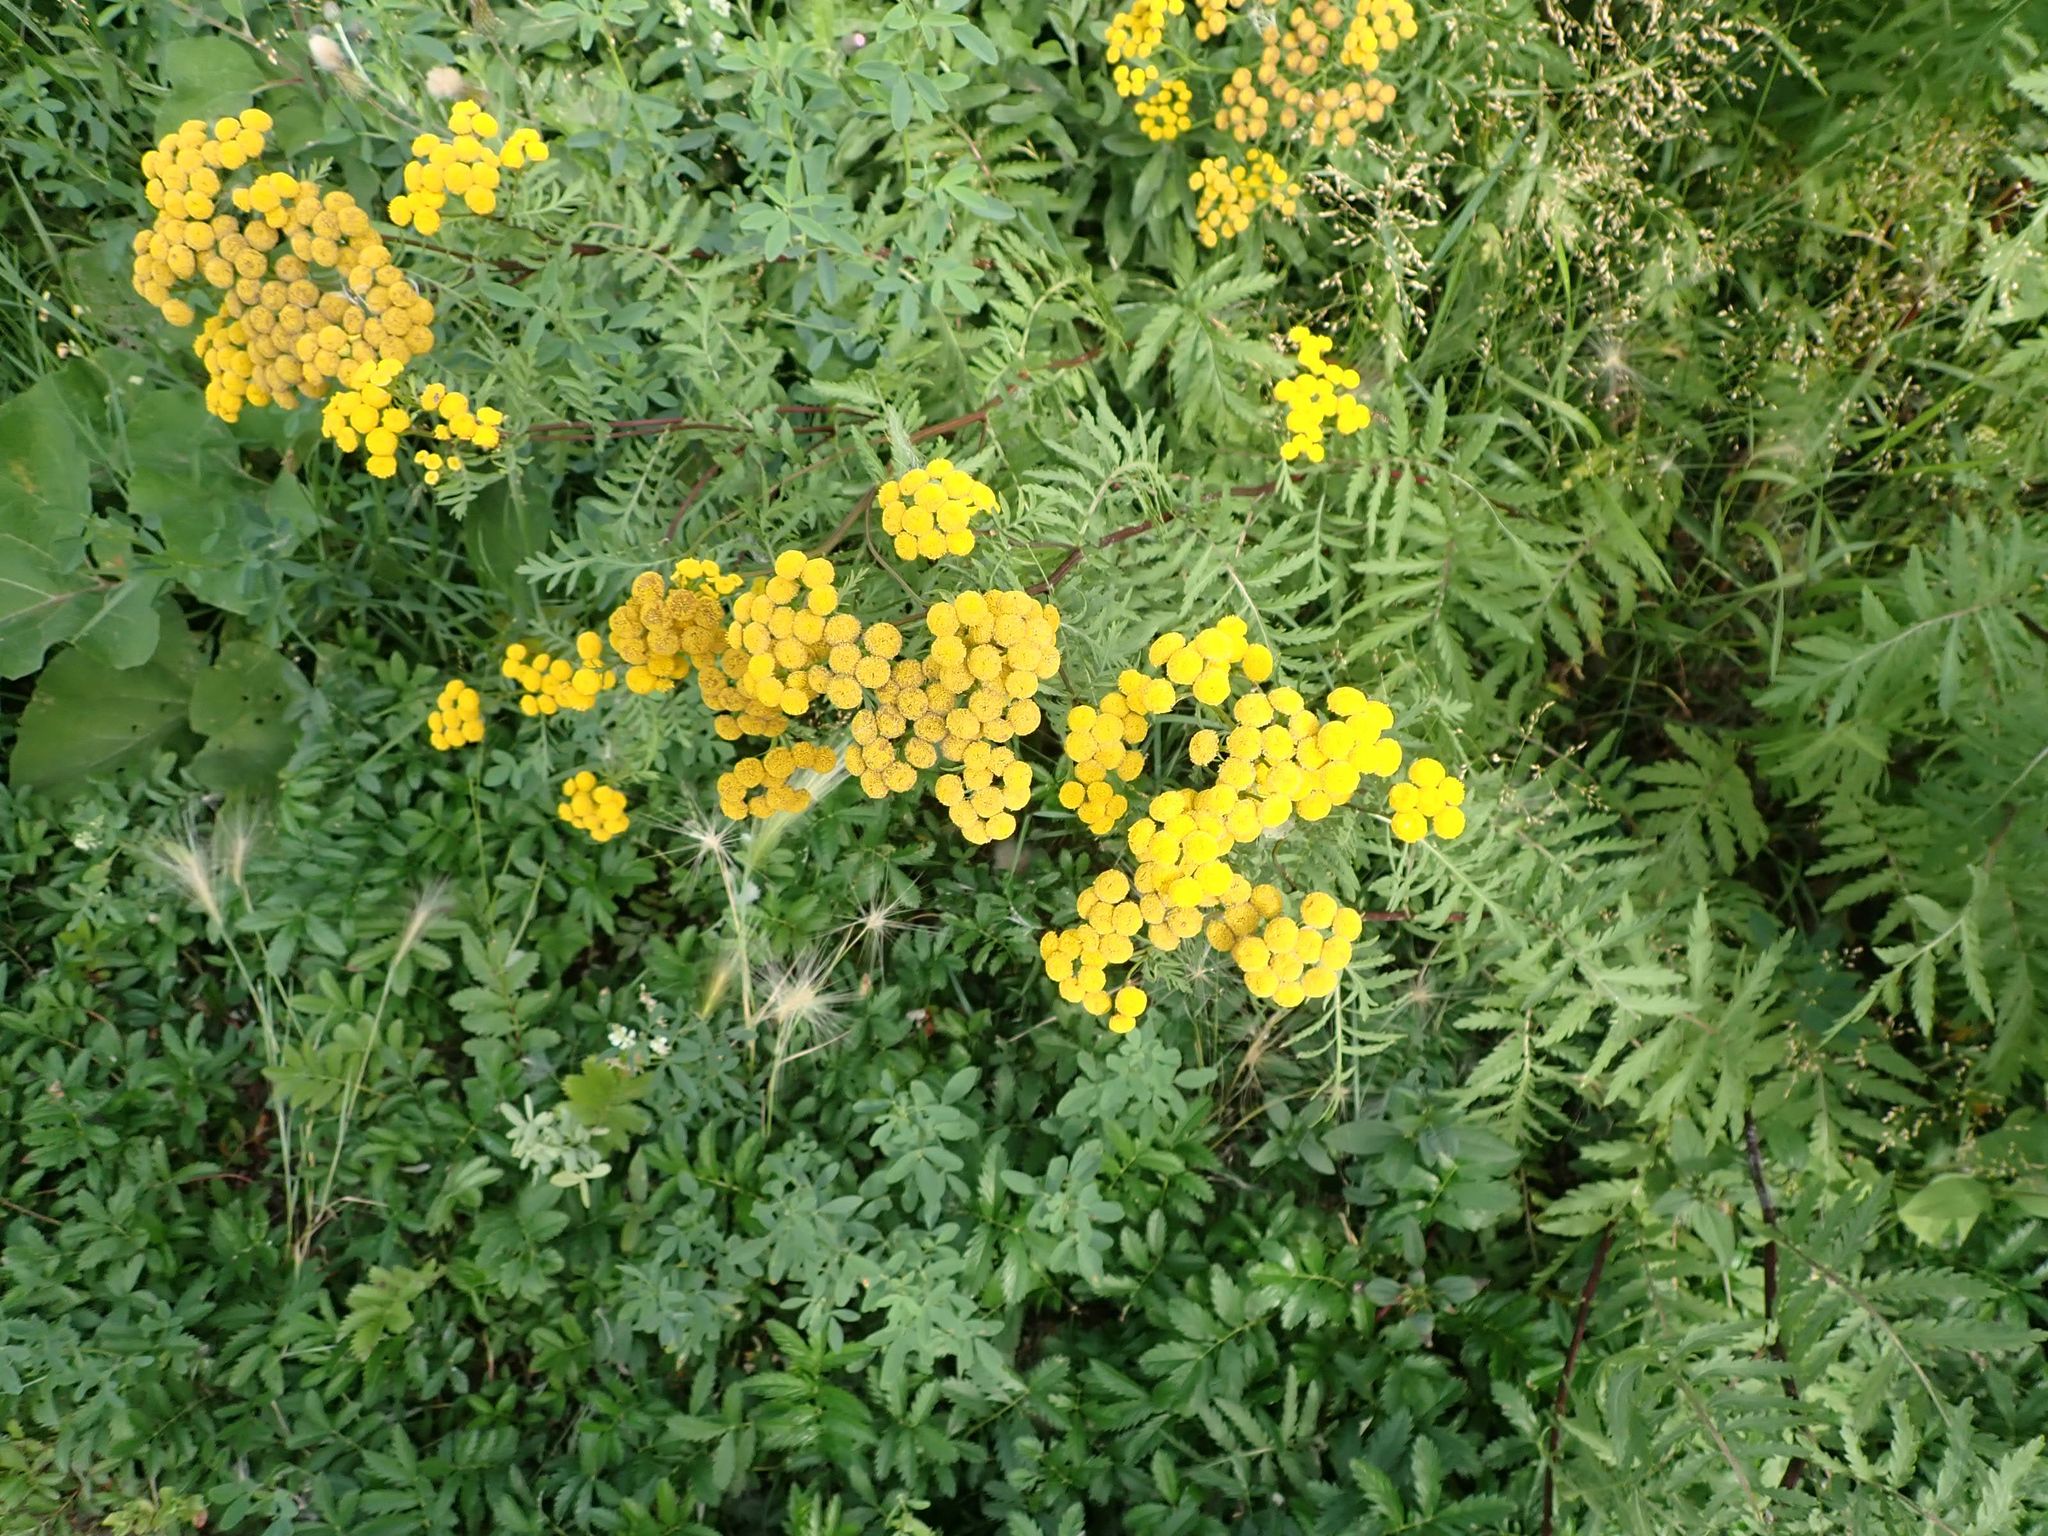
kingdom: Plantae
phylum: Tracheophyta
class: Magnoliopsida
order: Asterales
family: Asteraceae
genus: Tanacetum
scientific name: Tanacetum vulgare
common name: Common tansy
